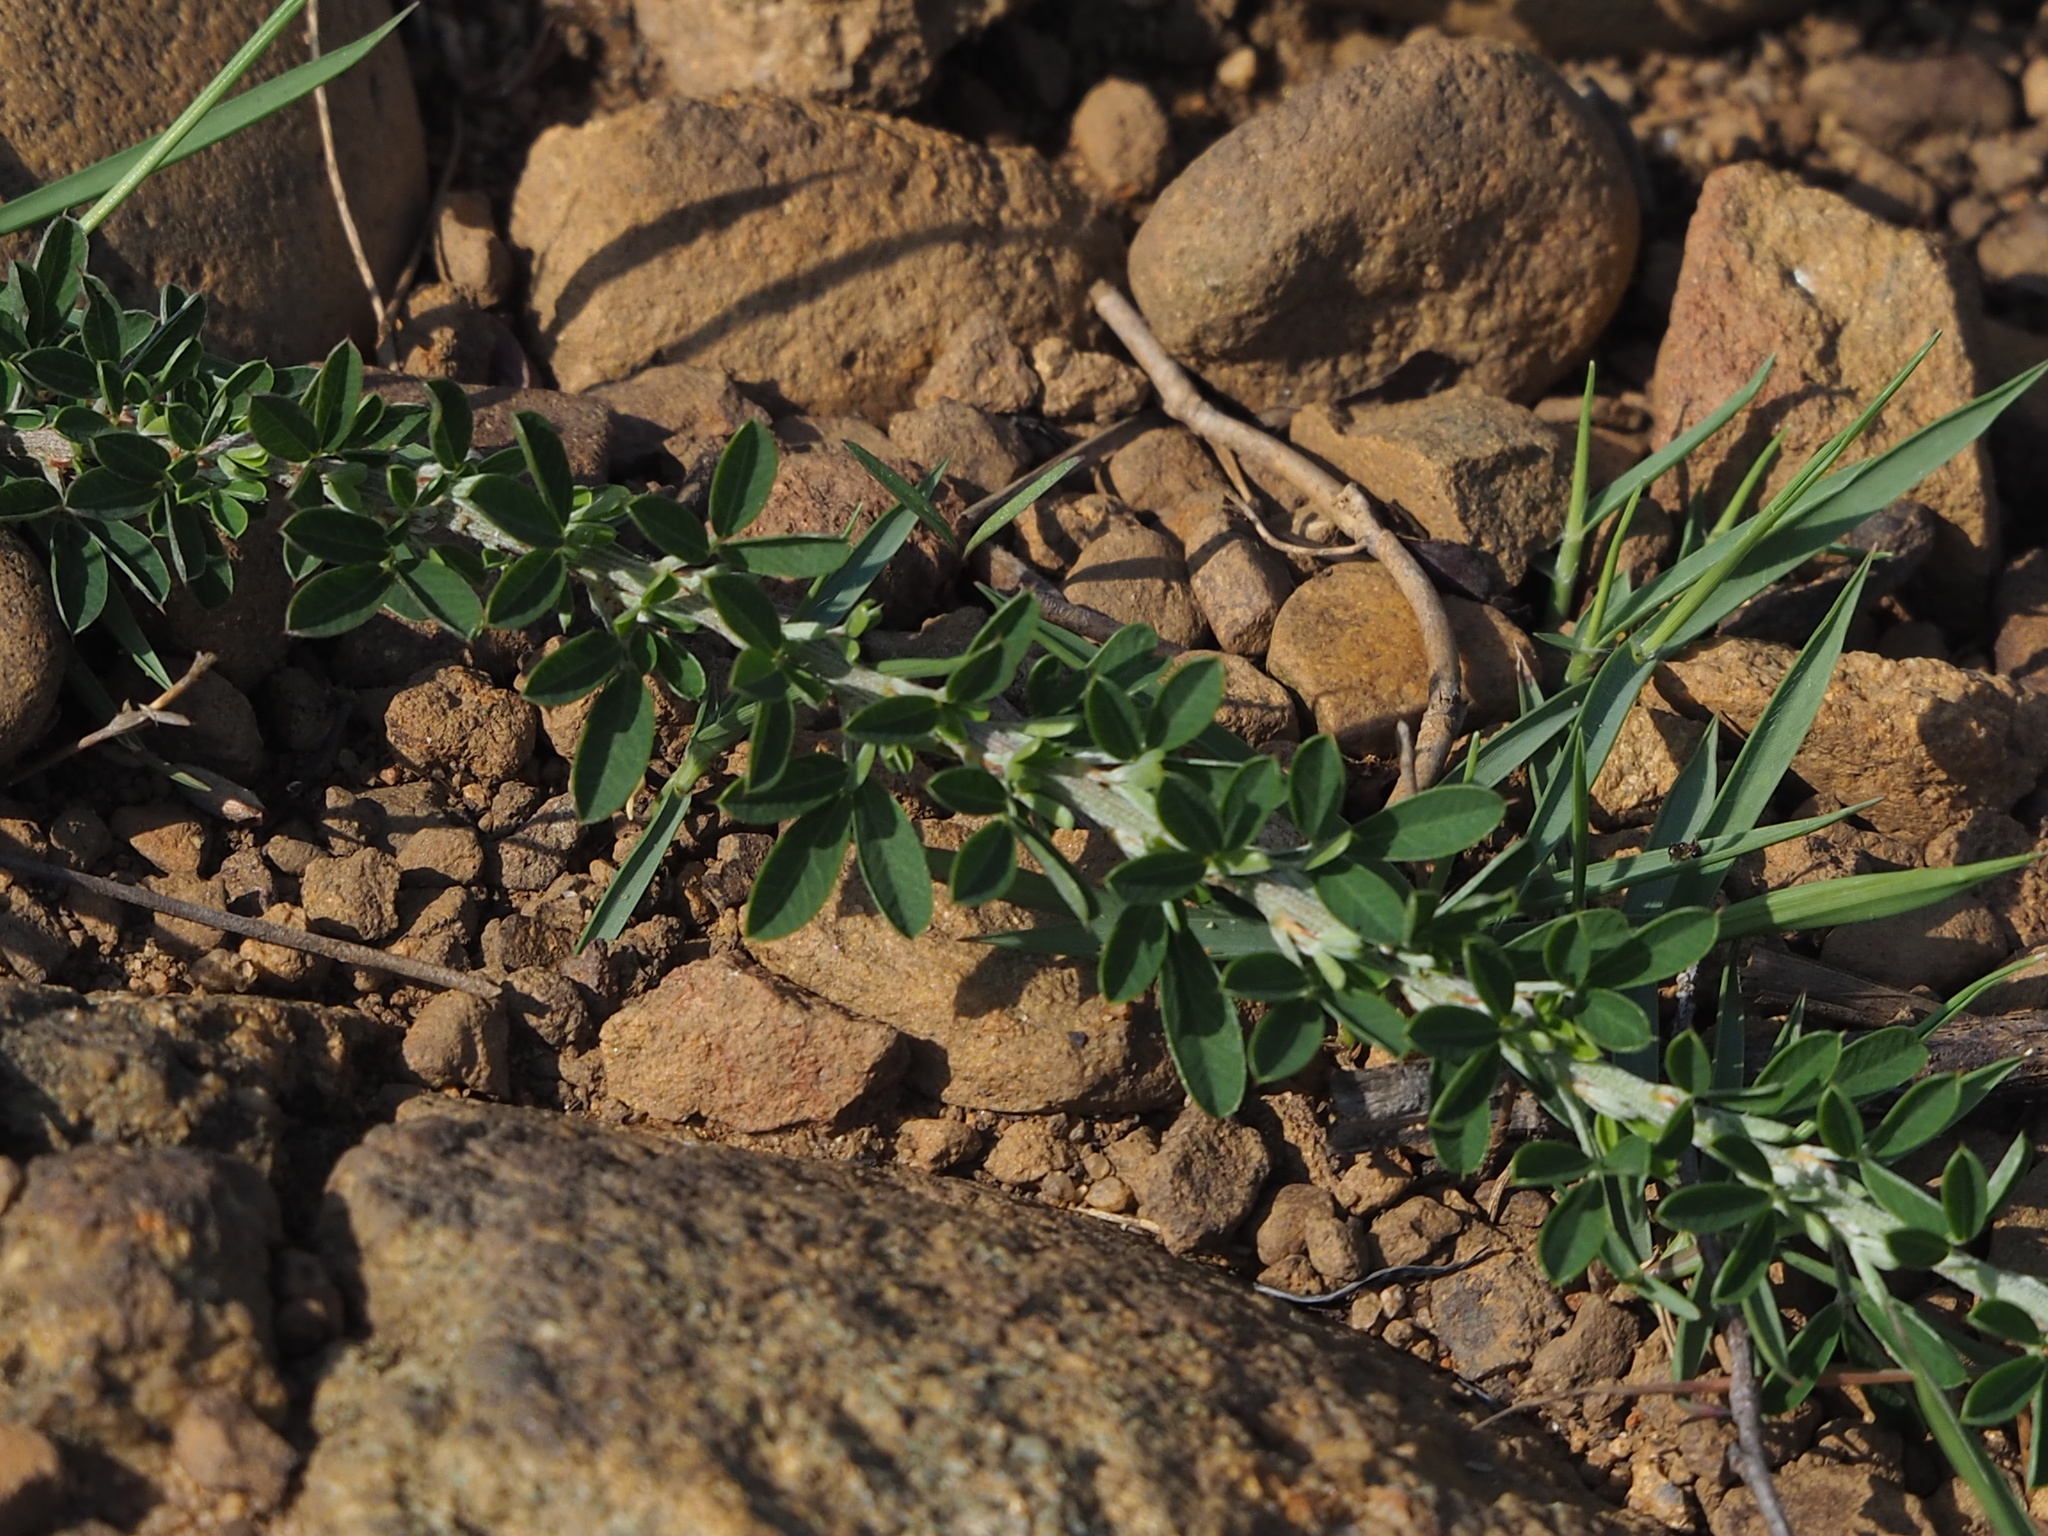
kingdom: Plantae
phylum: Tracheophyta
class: Magnoliopsida
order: Fabales
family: Fabaceae
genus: Lespedeza
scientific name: Lespedeza cuneata
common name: Chinese bush-clover
